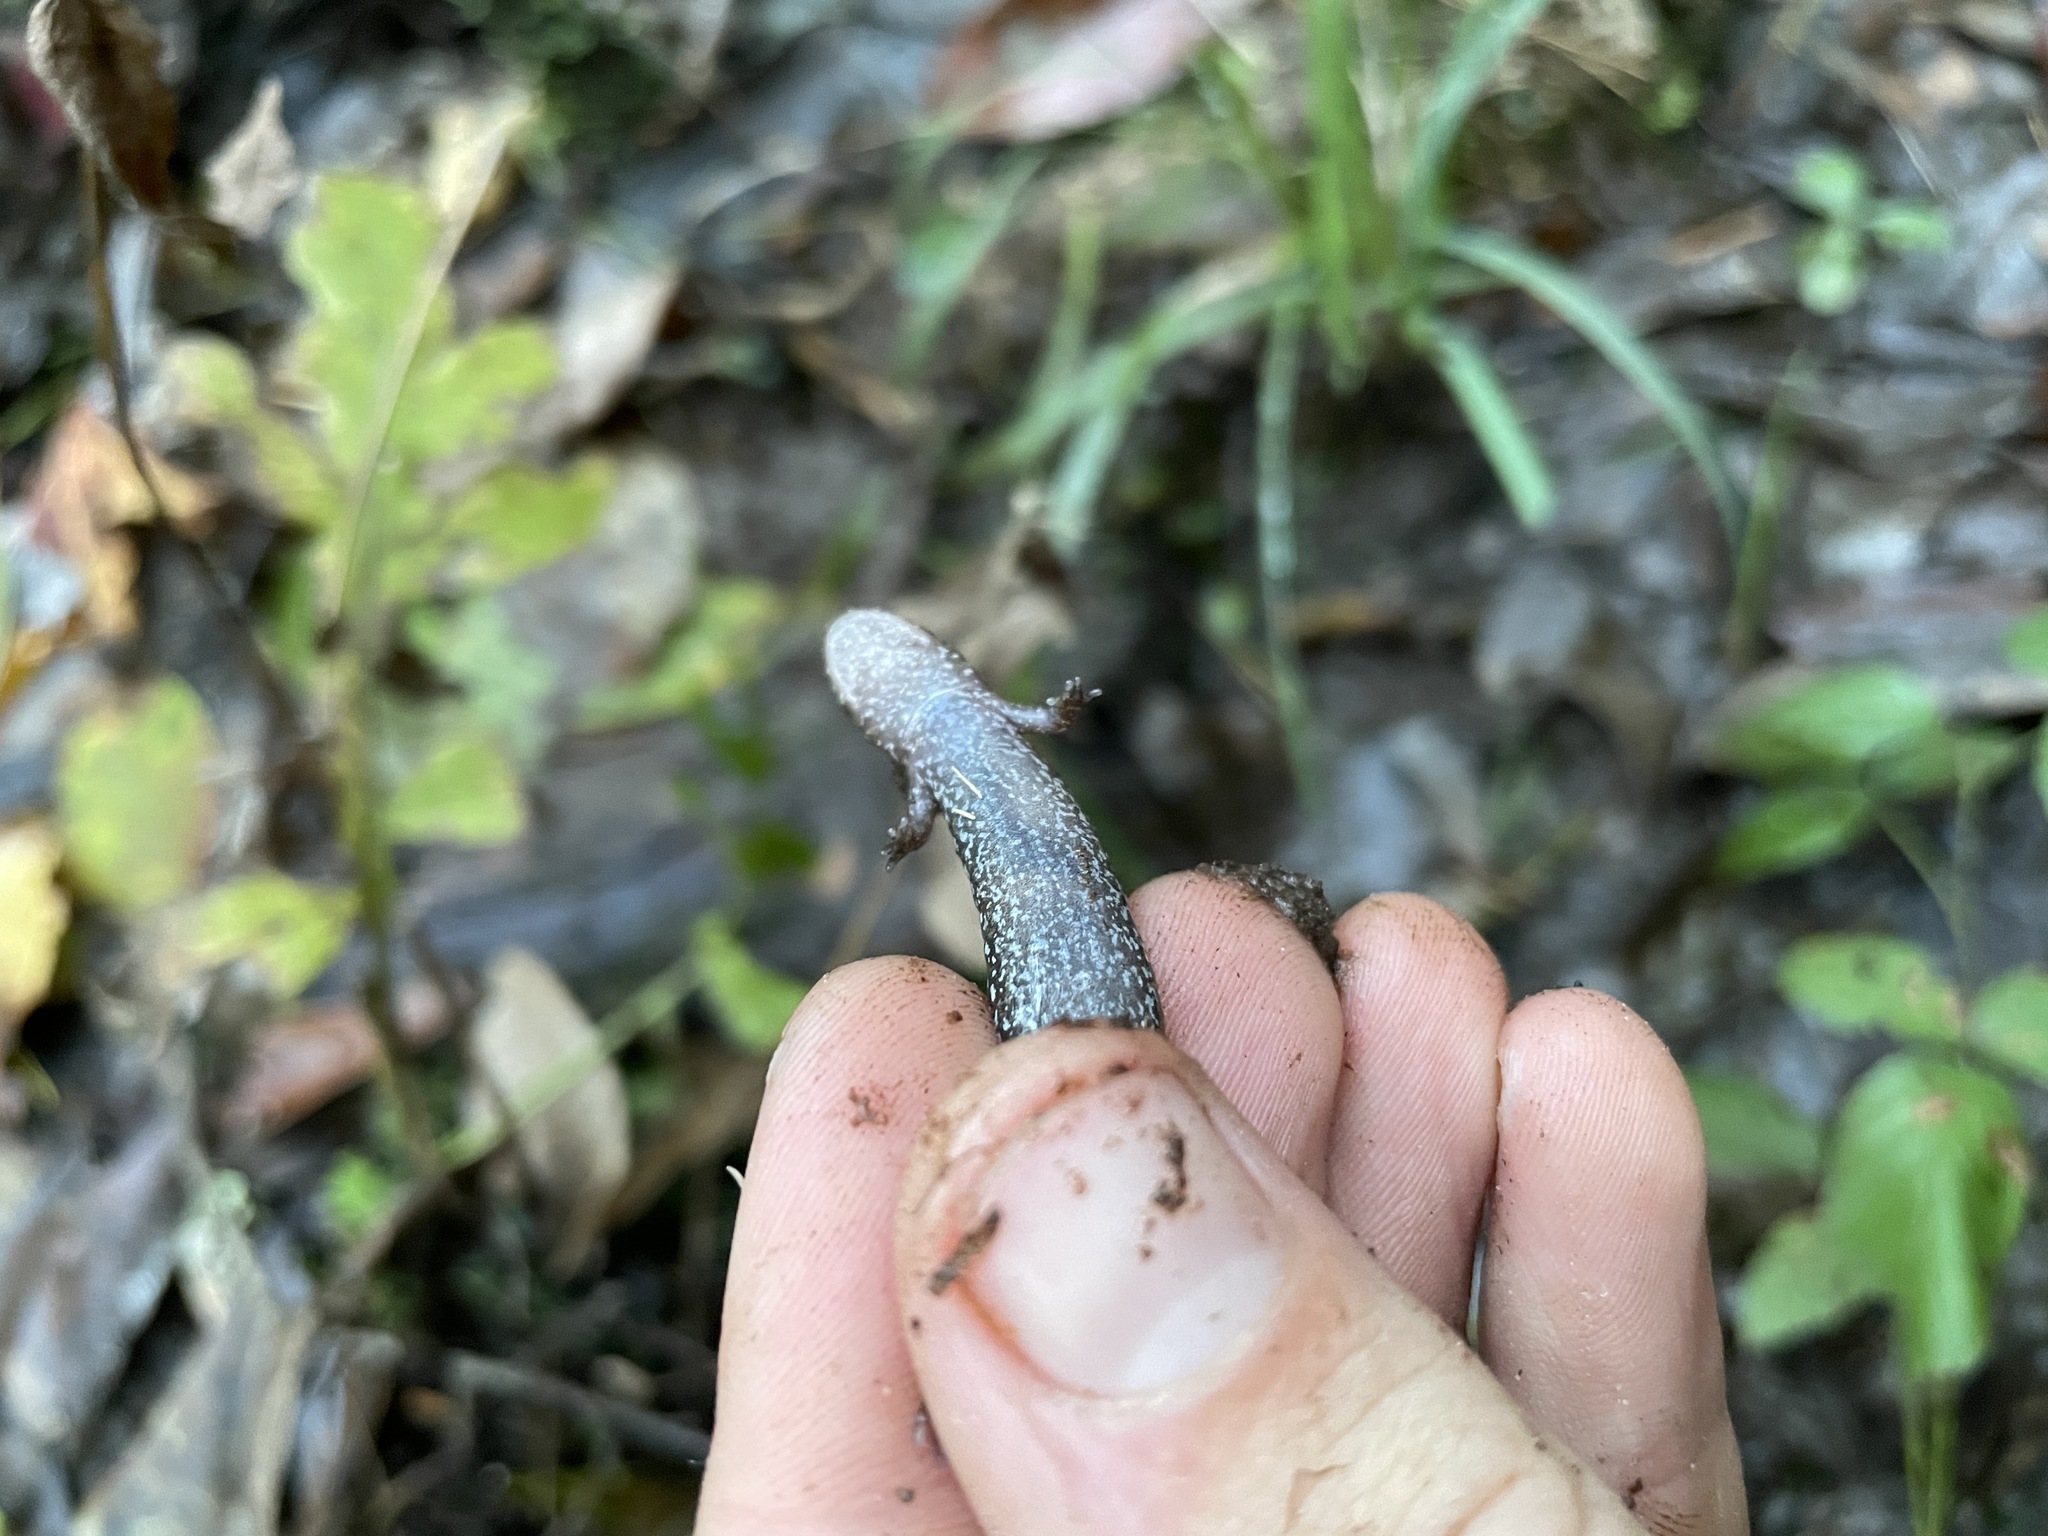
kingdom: Animalia
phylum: Chordata
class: Amphibia
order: Caudata
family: Plethodontidae
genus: Desmognathus
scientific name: Desmognathus conanti
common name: Spotted dusky salamander
